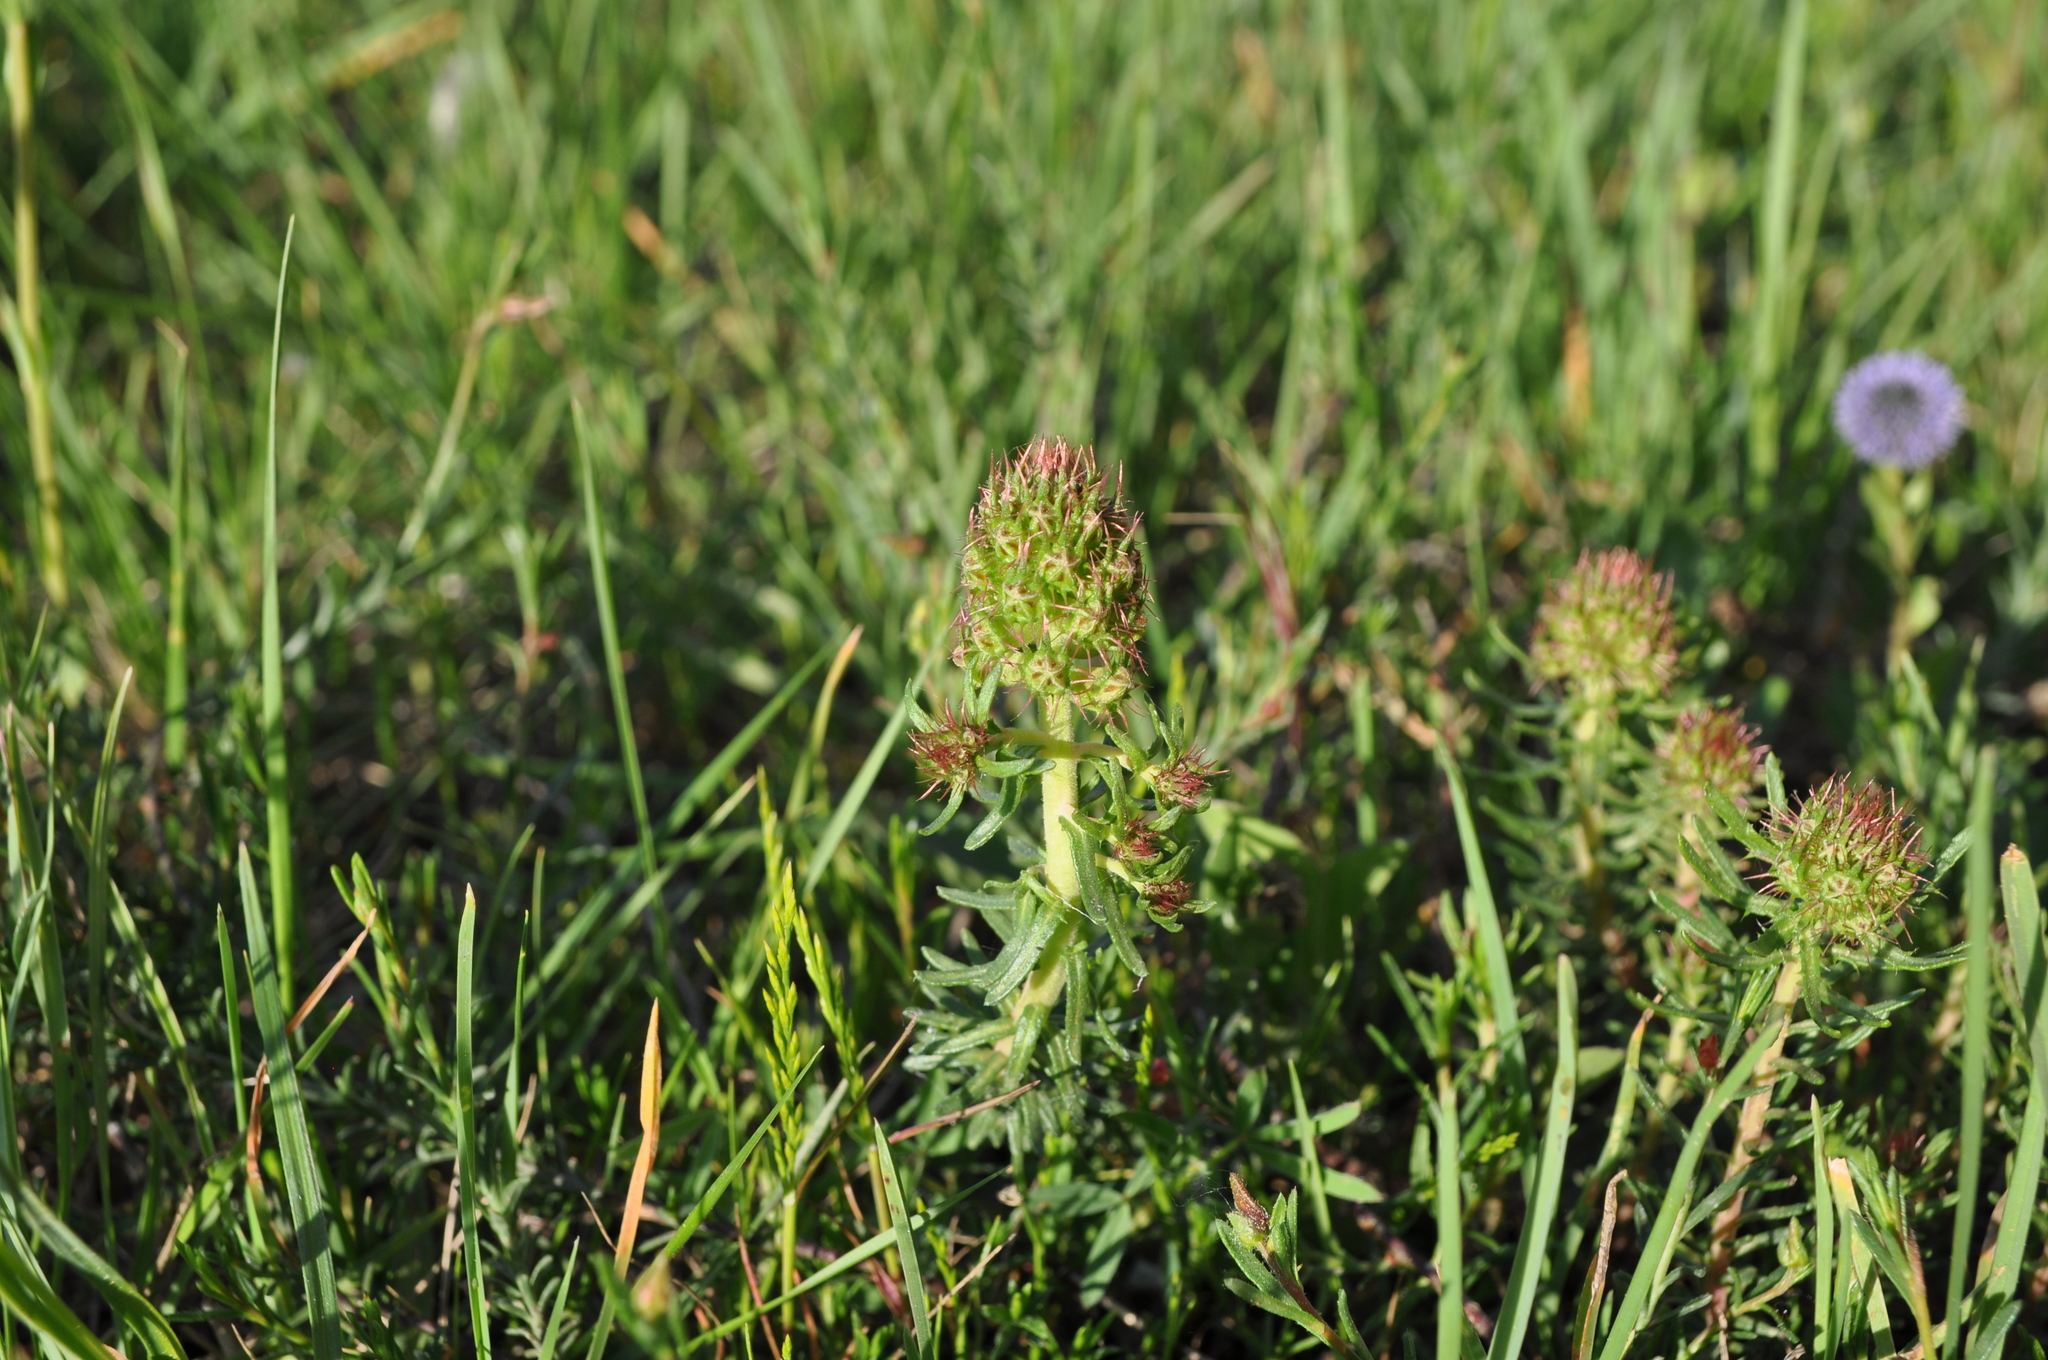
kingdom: Plantae
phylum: Tracheophyta
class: Magnoliopsida
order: Ericales
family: Primulaceae
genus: Coris
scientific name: Coris monspeliensis
